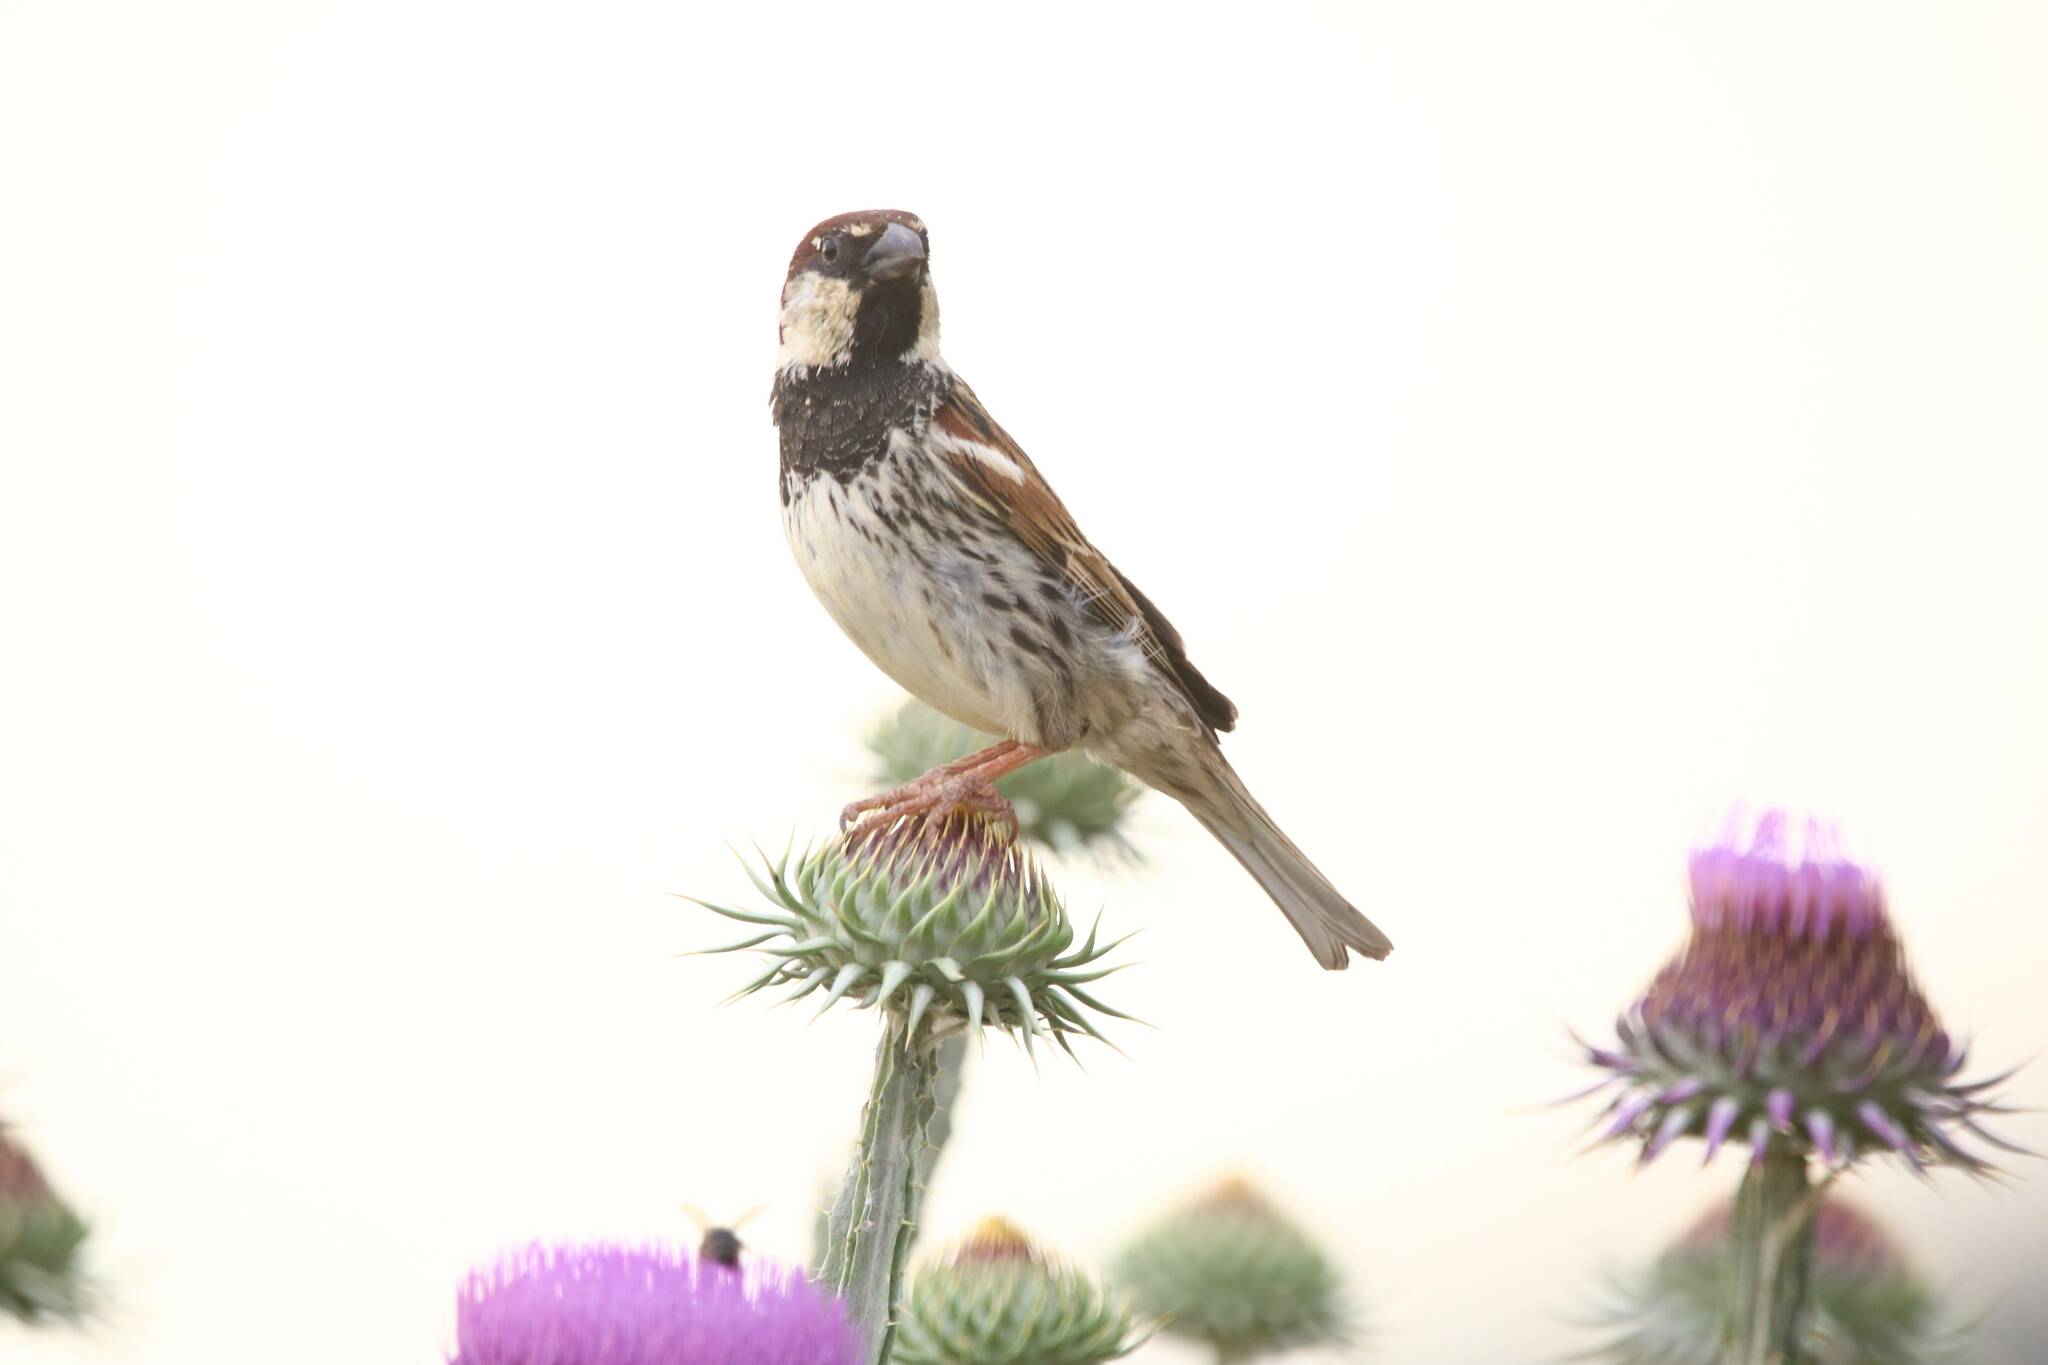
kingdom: Animalia
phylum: Chordata
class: Aves
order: Passeriformes
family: Passeridae
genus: Passer
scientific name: Passer hispaniolensis
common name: Spanish sparrow
